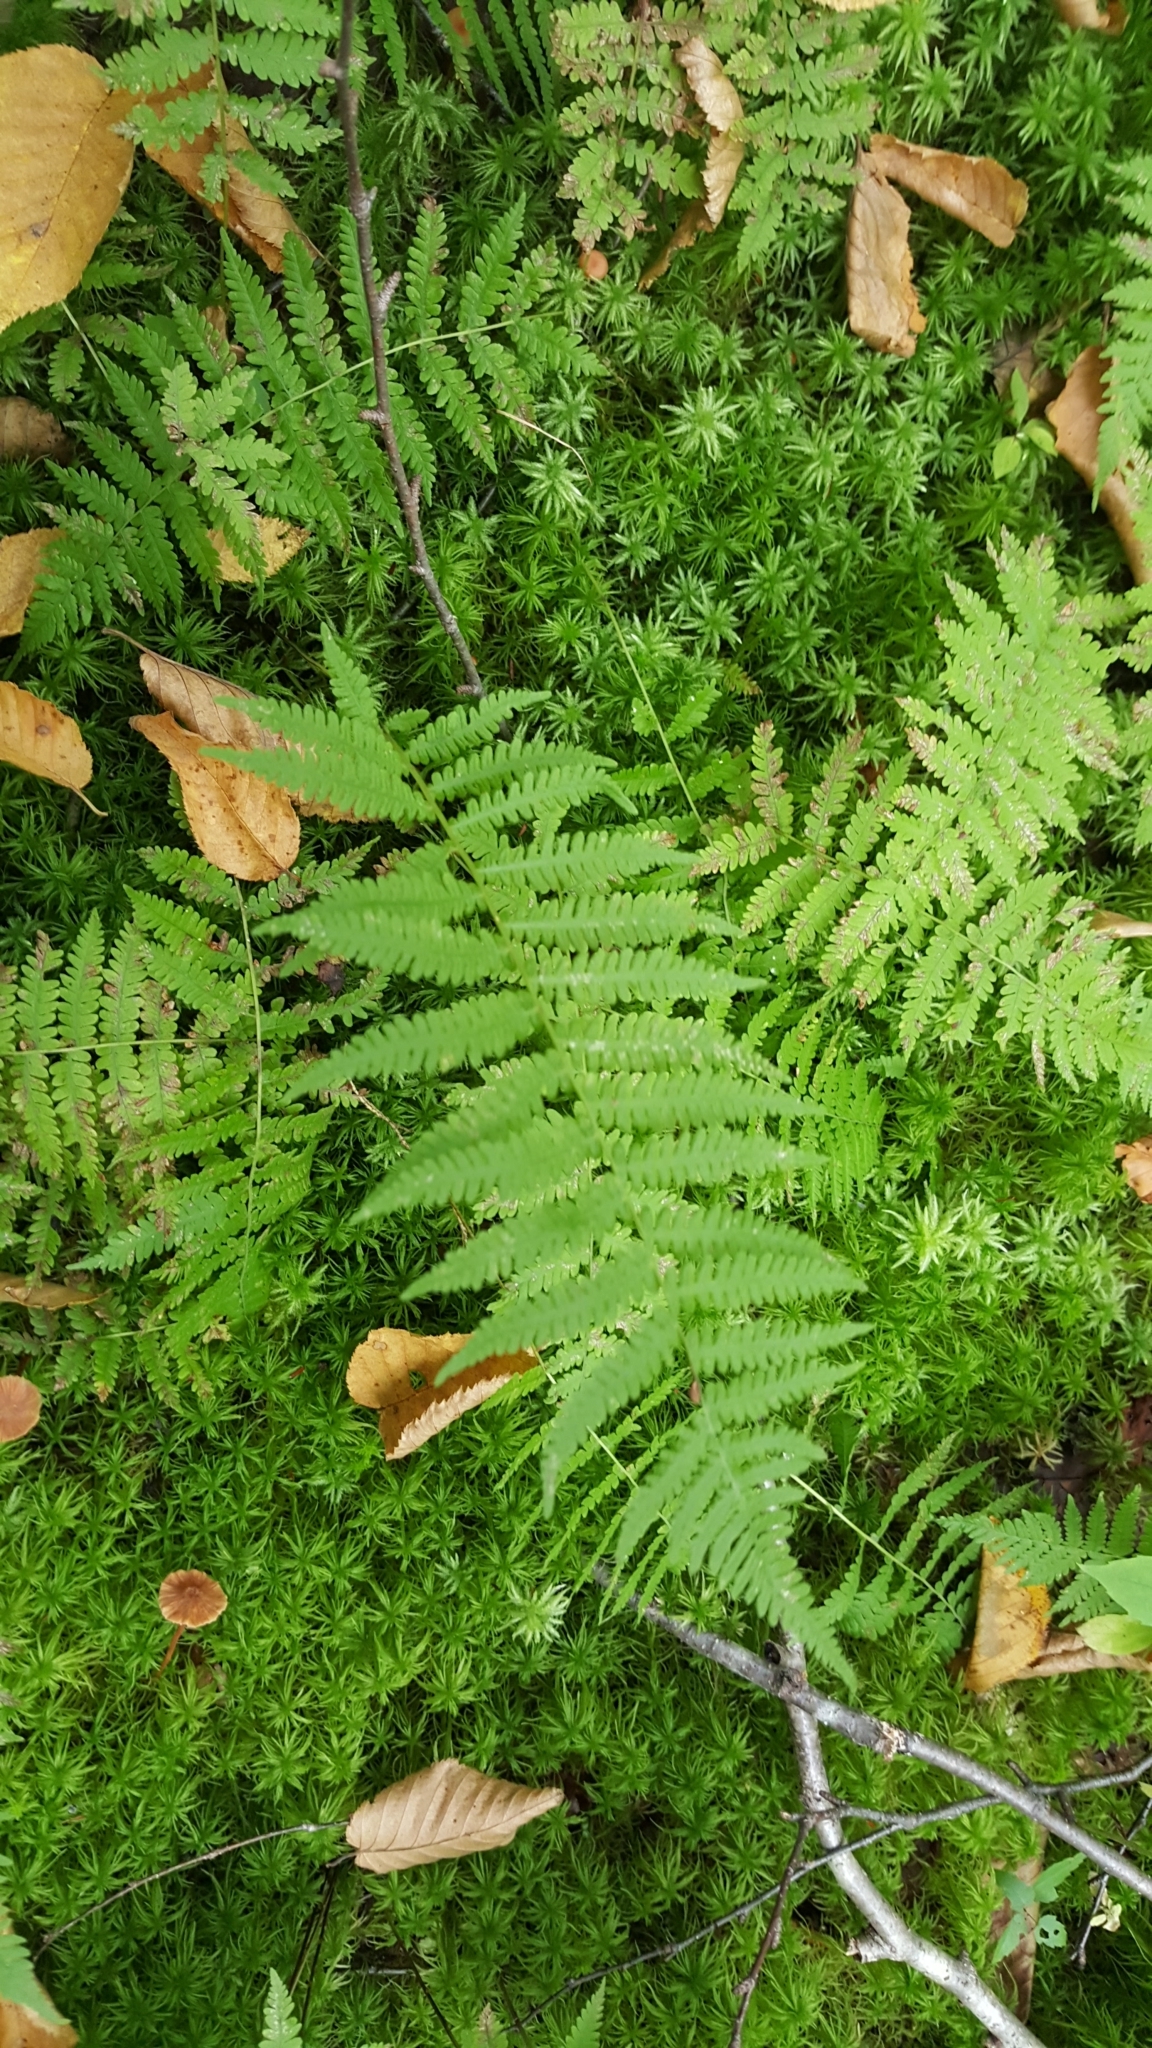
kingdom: Plantae
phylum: Tracheophyta
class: Polypodiopsida
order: Polypodiales
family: Thelypteridaceae
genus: Amauropelta
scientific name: Amauropelta noveboracensis
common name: New york fern
